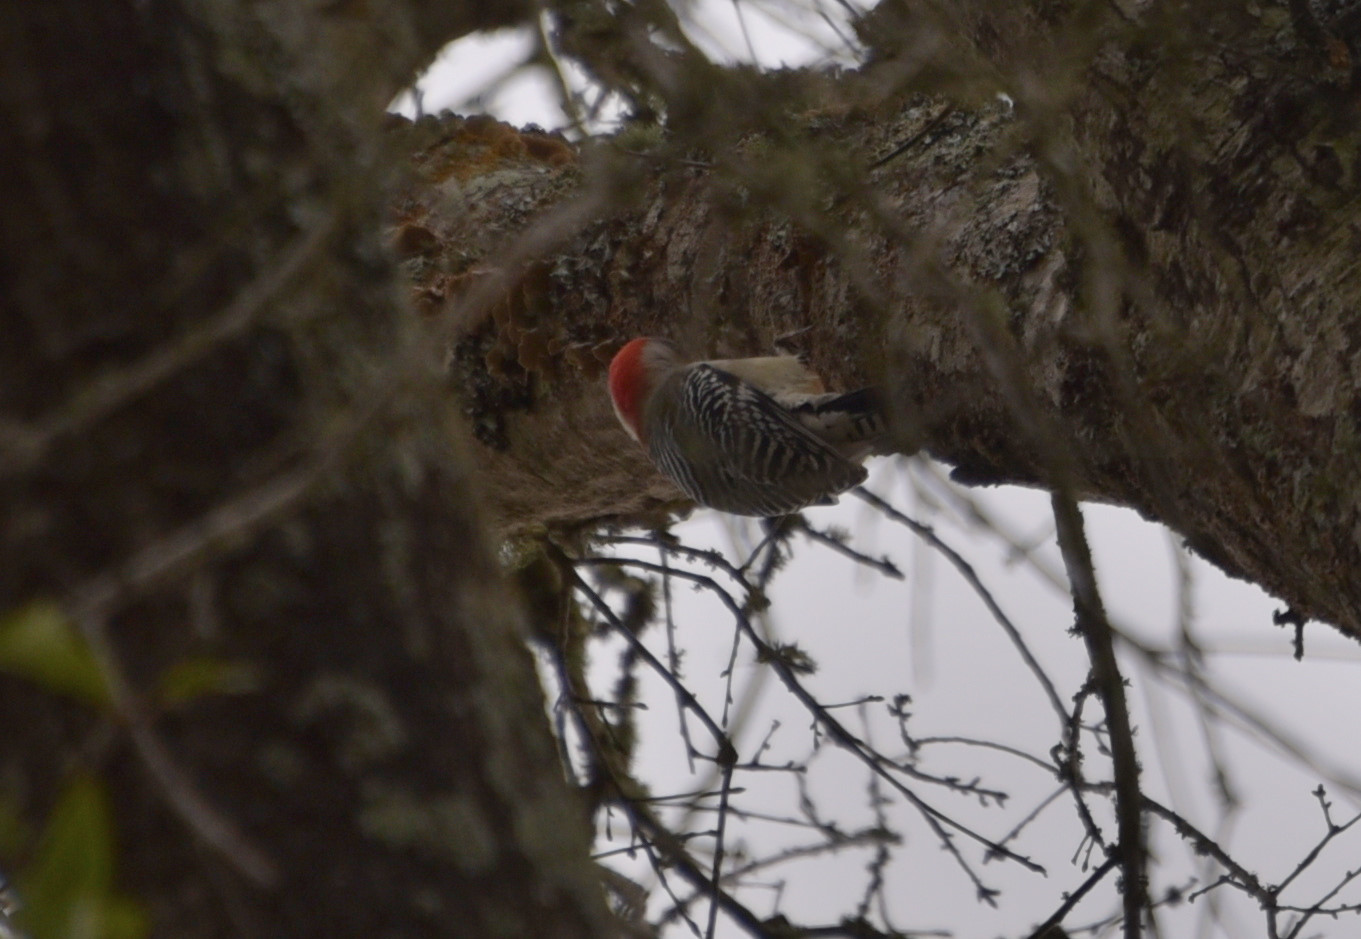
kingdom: Animalia
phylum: Chordata
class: Aves
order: Piciformes
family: Picidae
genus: Melanerpes
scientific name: Melanerpes carolinus
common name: Red-bellied woodpecker
